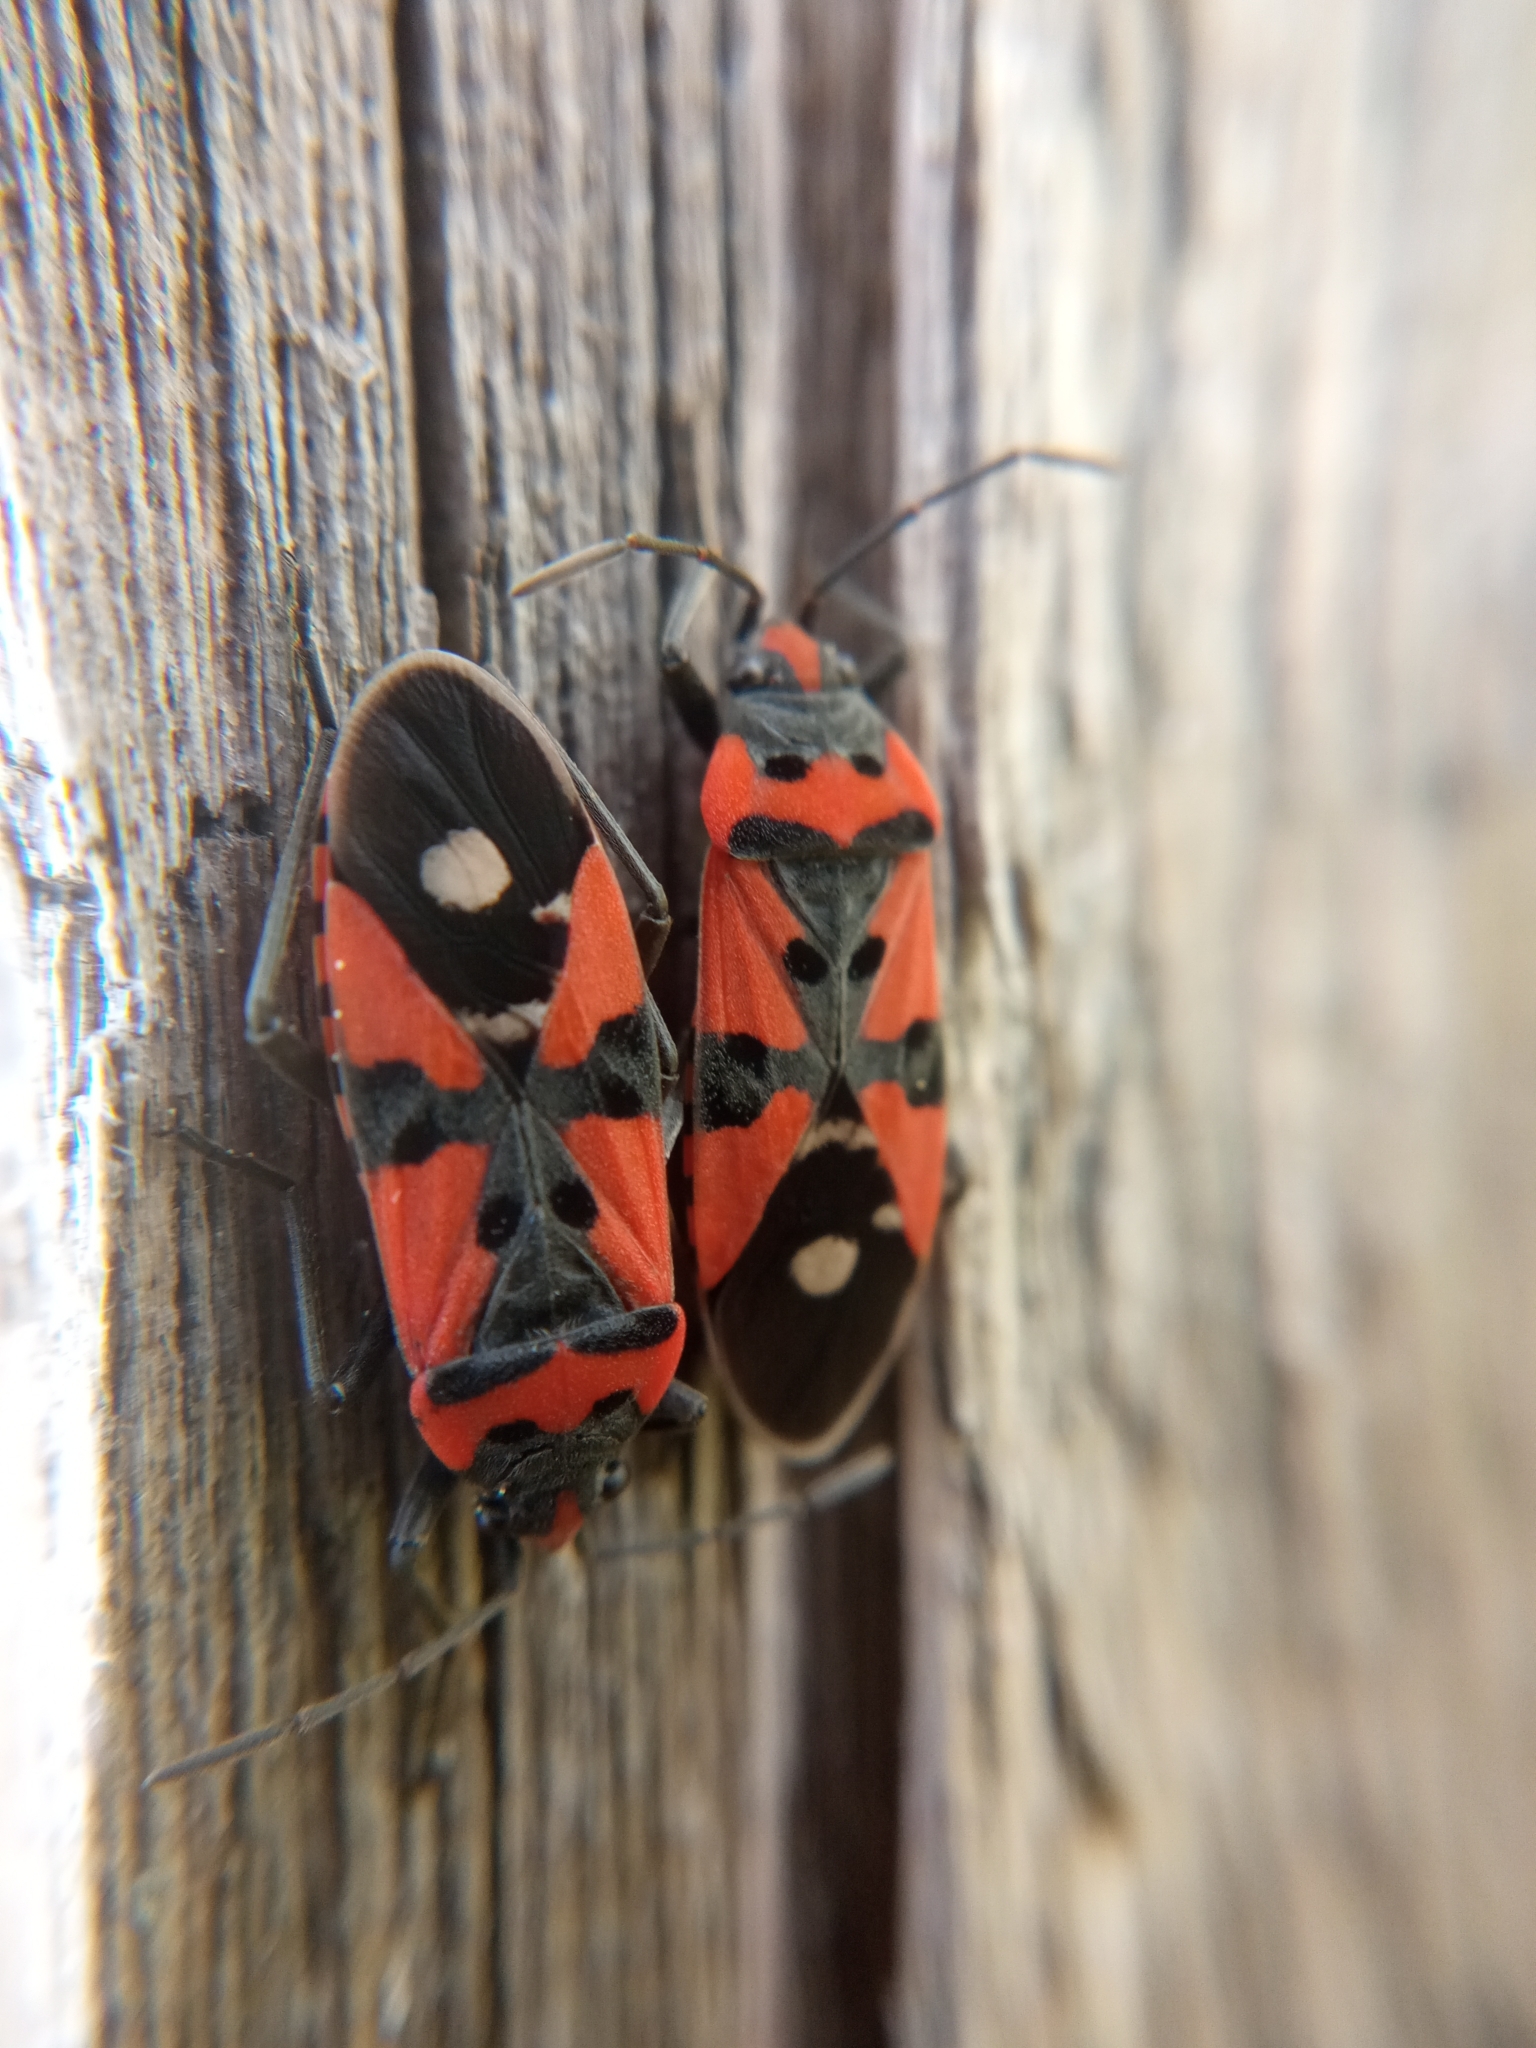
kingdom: Animalia
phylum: Arthropoda
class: Insecta
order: Hemiptera
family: Lygaeidae
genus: Lygaeus
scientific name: Lygaeus equestris
